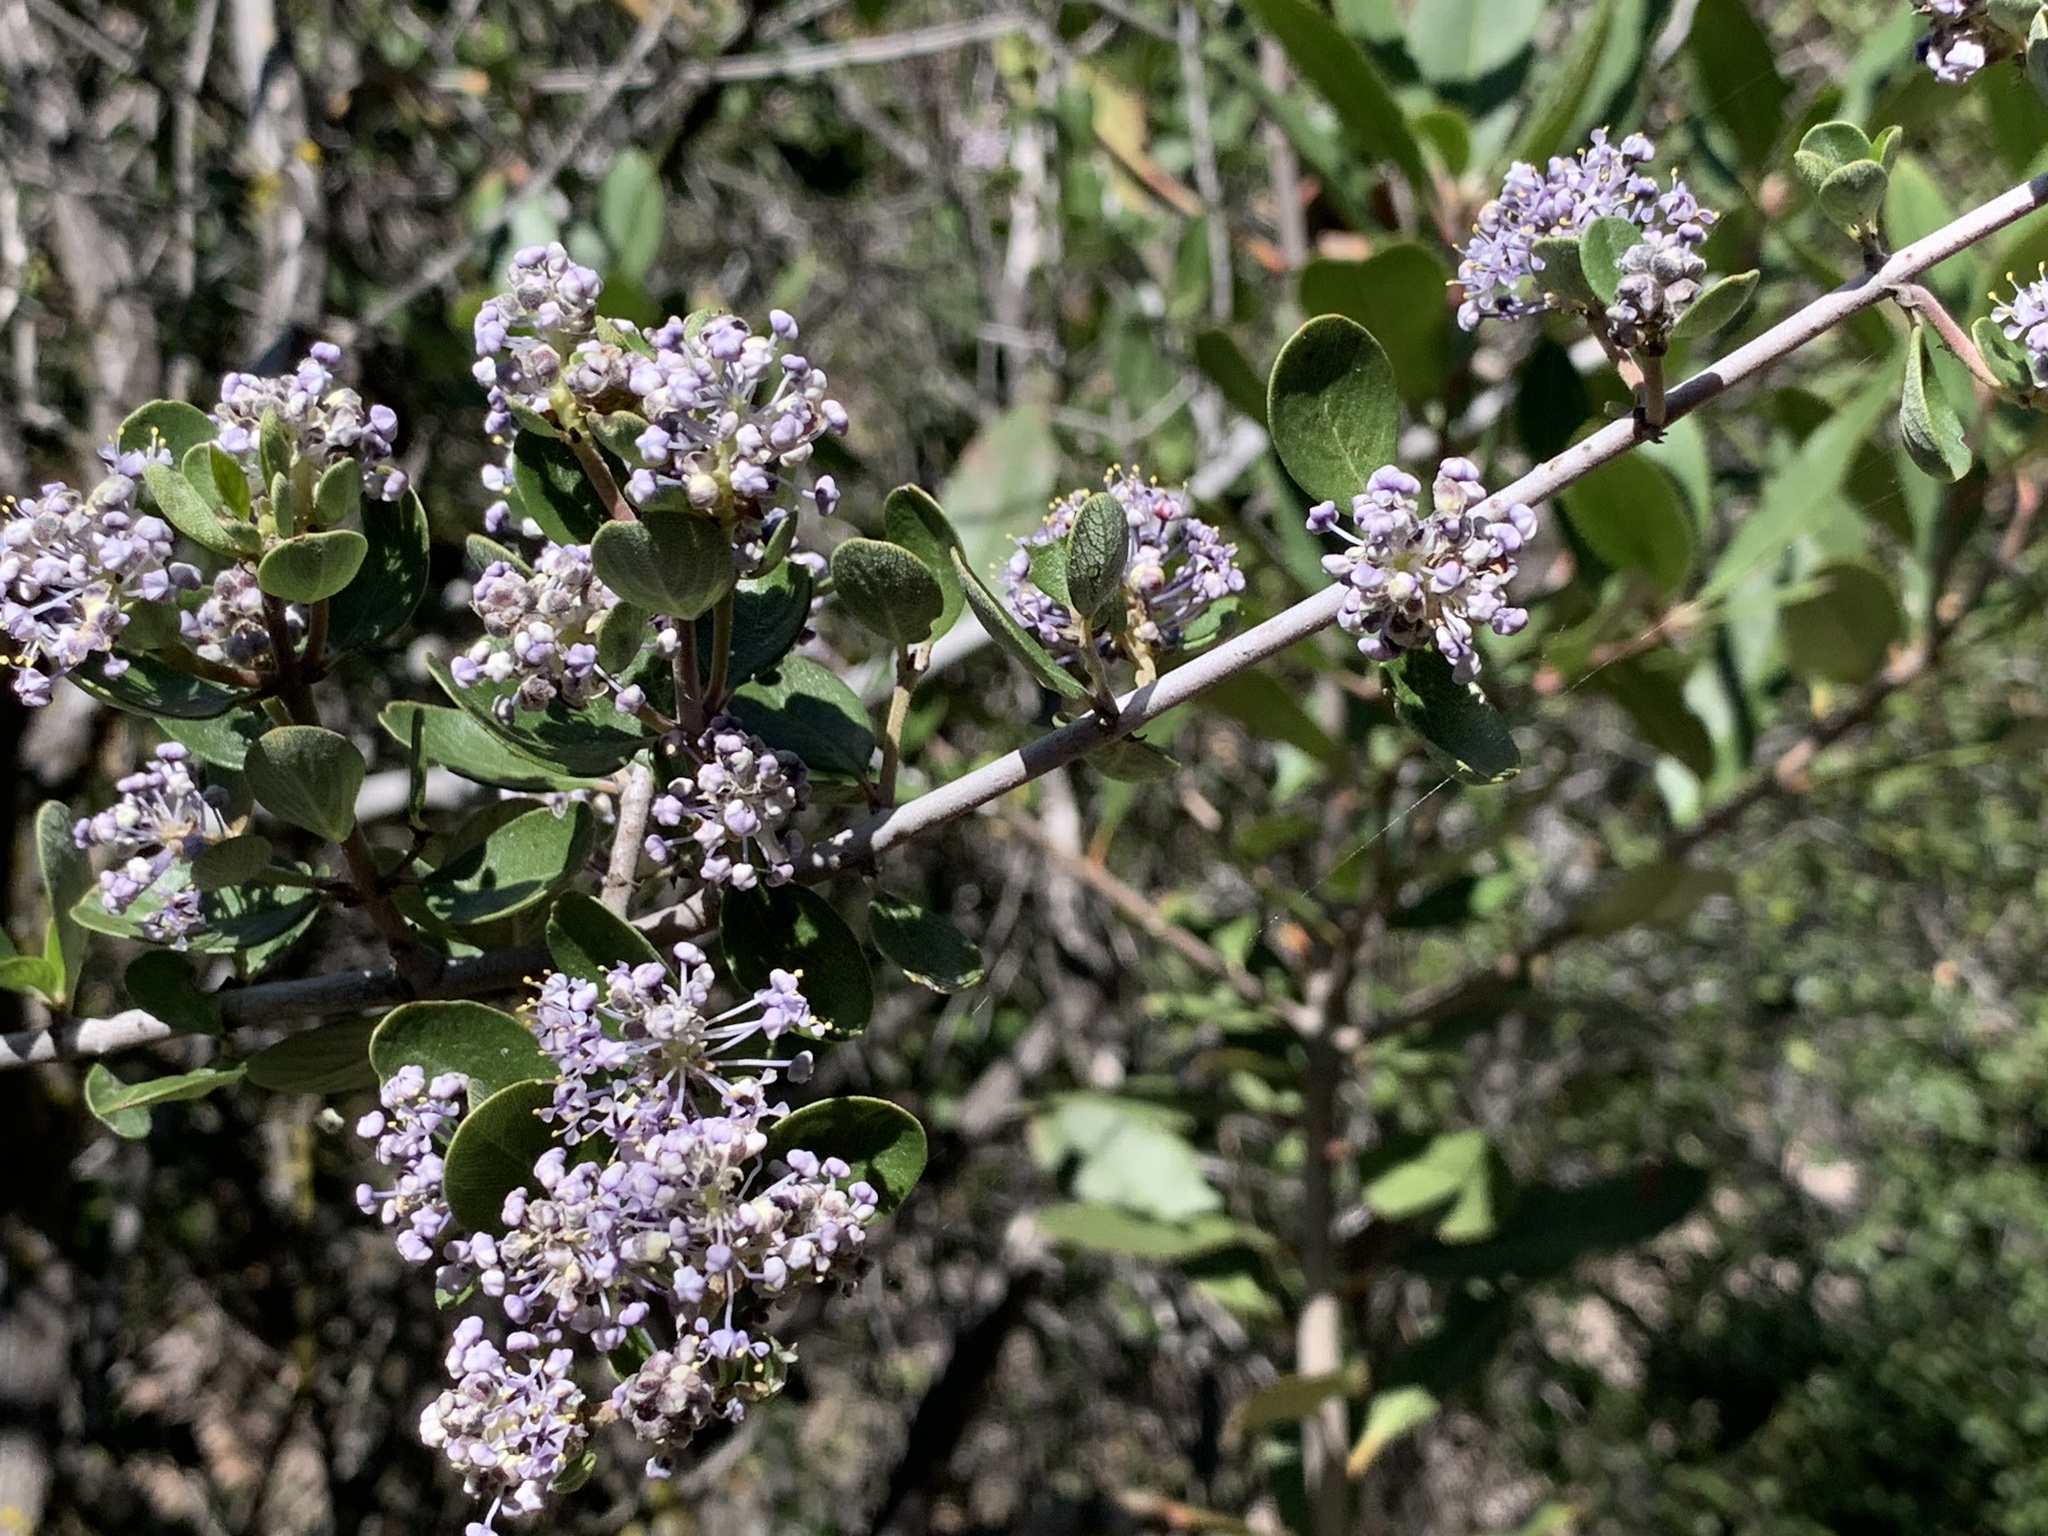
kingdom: Plantae
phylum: Tracheophyta
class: Magnoliopsida
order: Rosales
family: Rhamnaceae
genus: Ceanothus
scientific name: Ceanothus cuneatus
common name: Cuneate ceanothus
